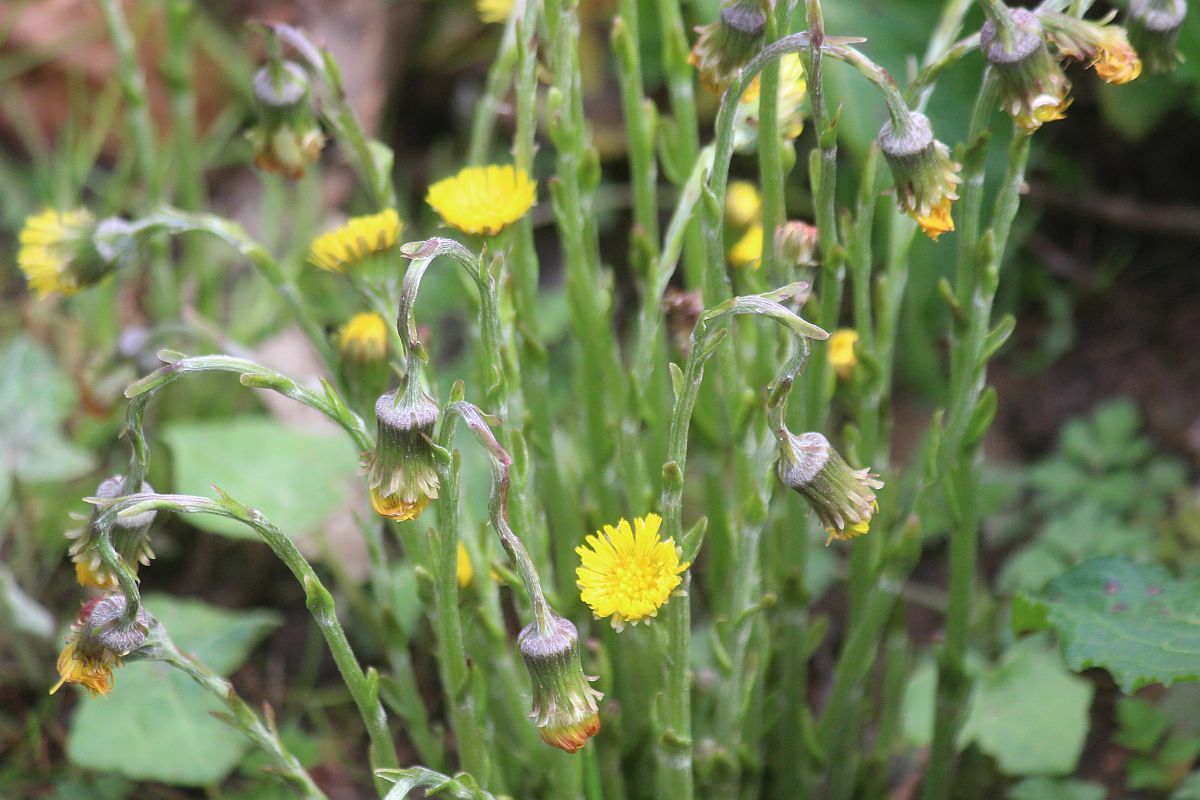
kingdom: Plantae
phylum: Tracheophyta
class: Magnoliopsida
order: Asterales
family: Asteraceae
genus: Tussilago
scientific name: Tussilago farfara
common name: Coltsfoot
